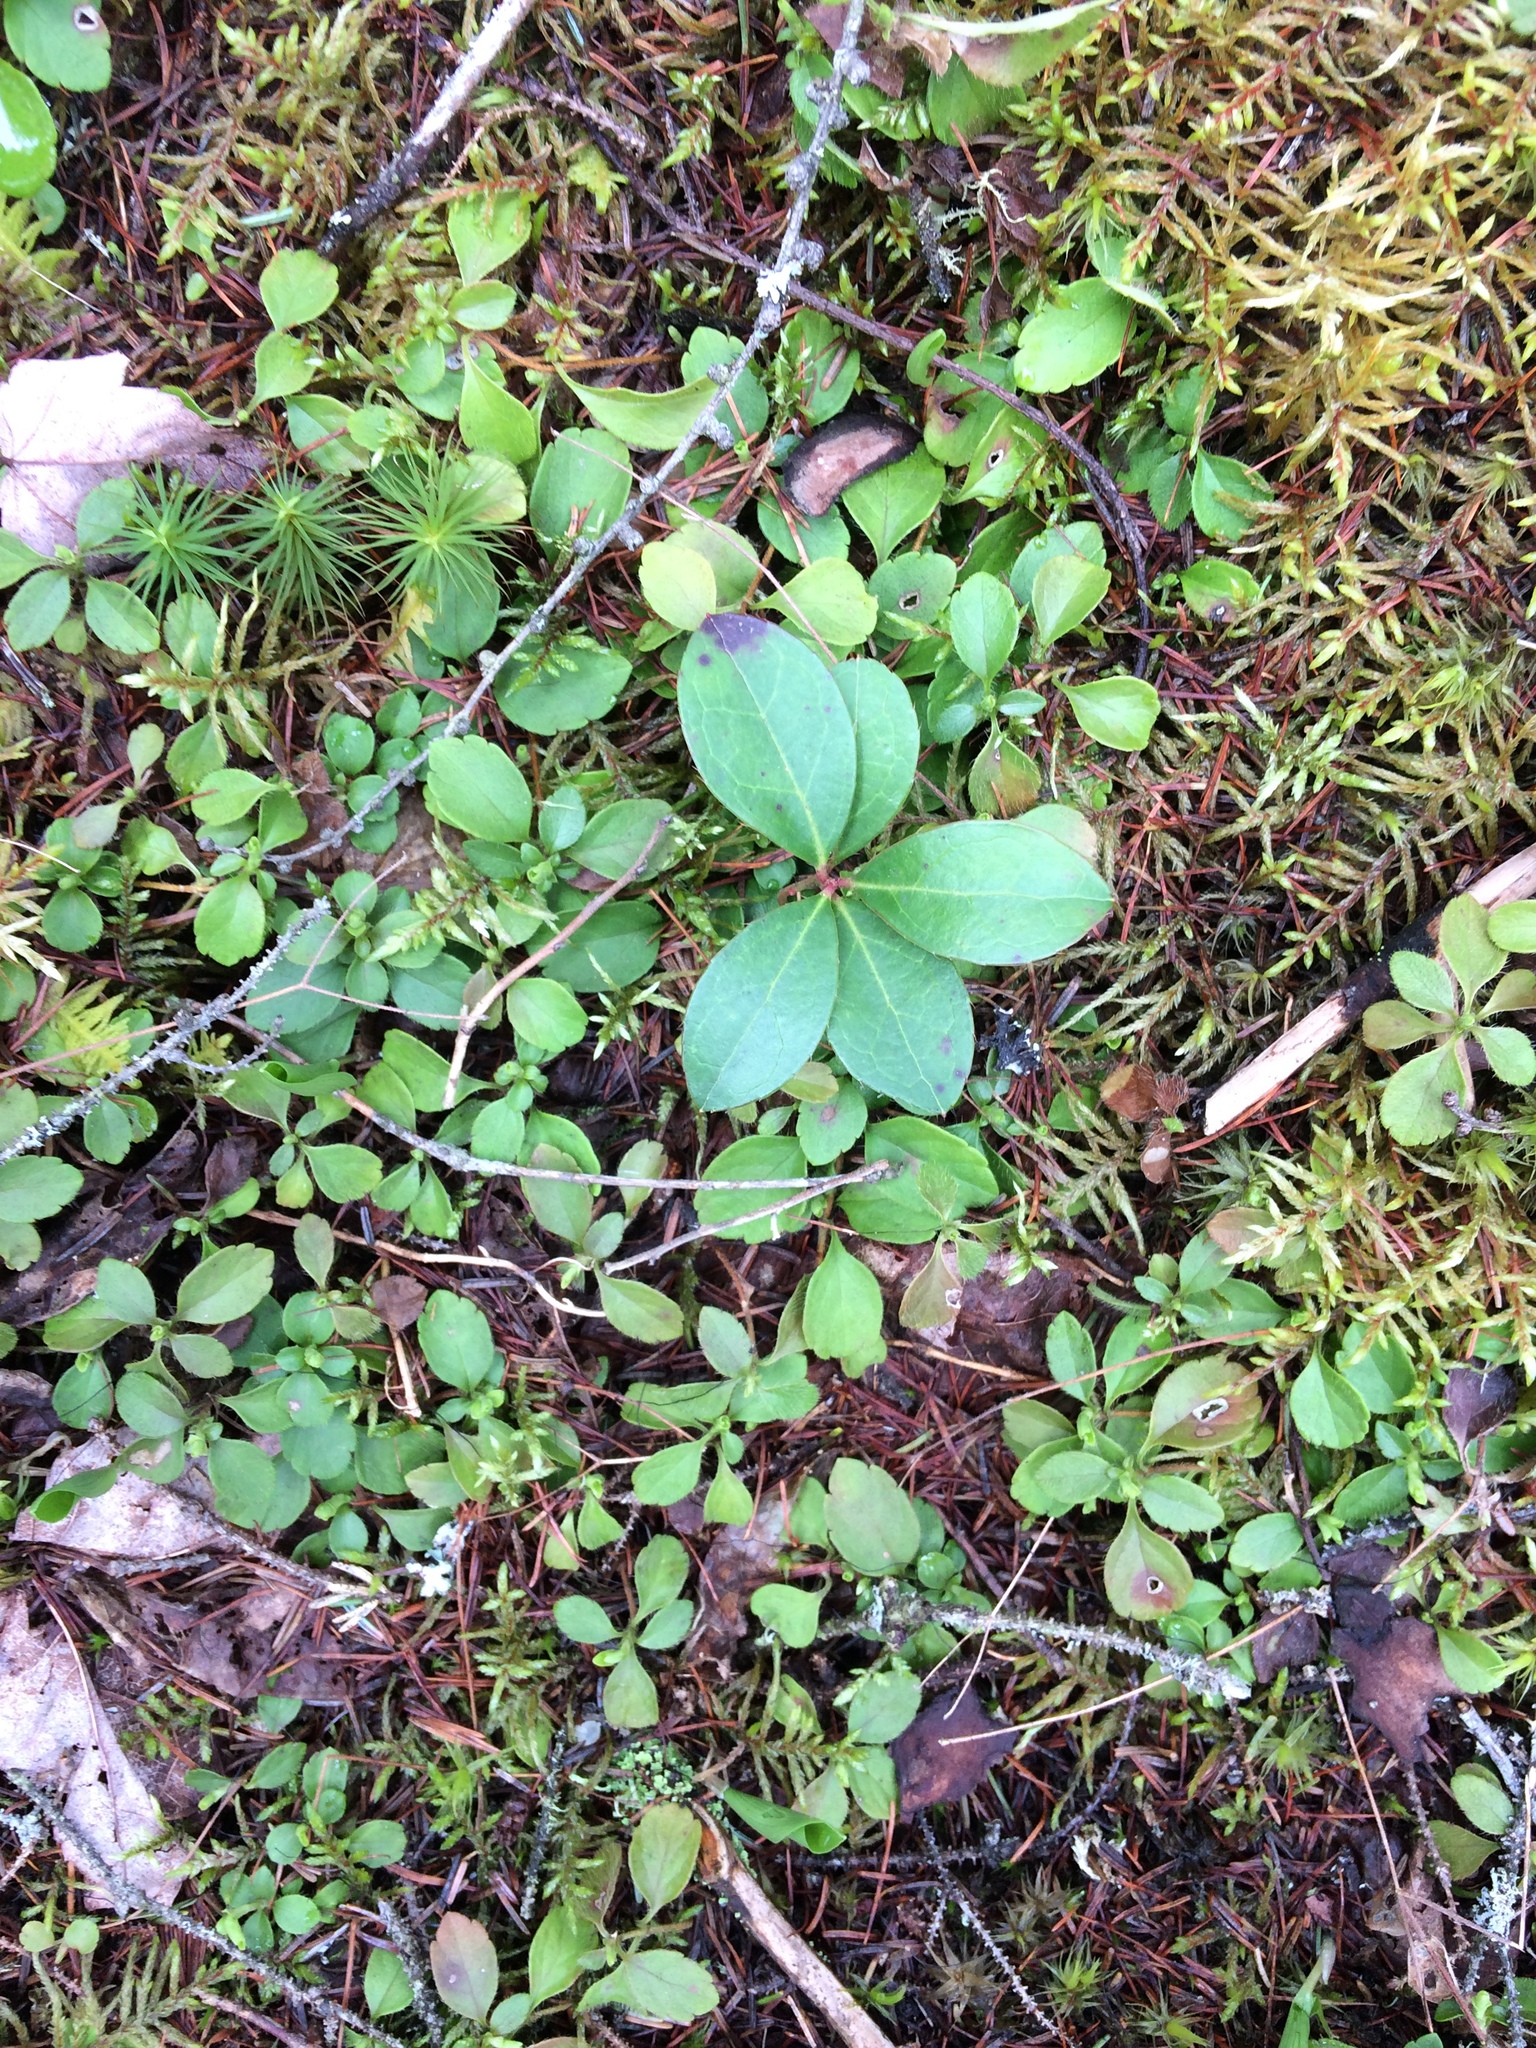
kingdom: Plantae
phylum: Tracheophyta
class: Magnoliopsida
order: Dipsacales
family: Caprifoliaceae
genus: Linnaea
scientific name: Linnaea borealis
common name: Twinflower
